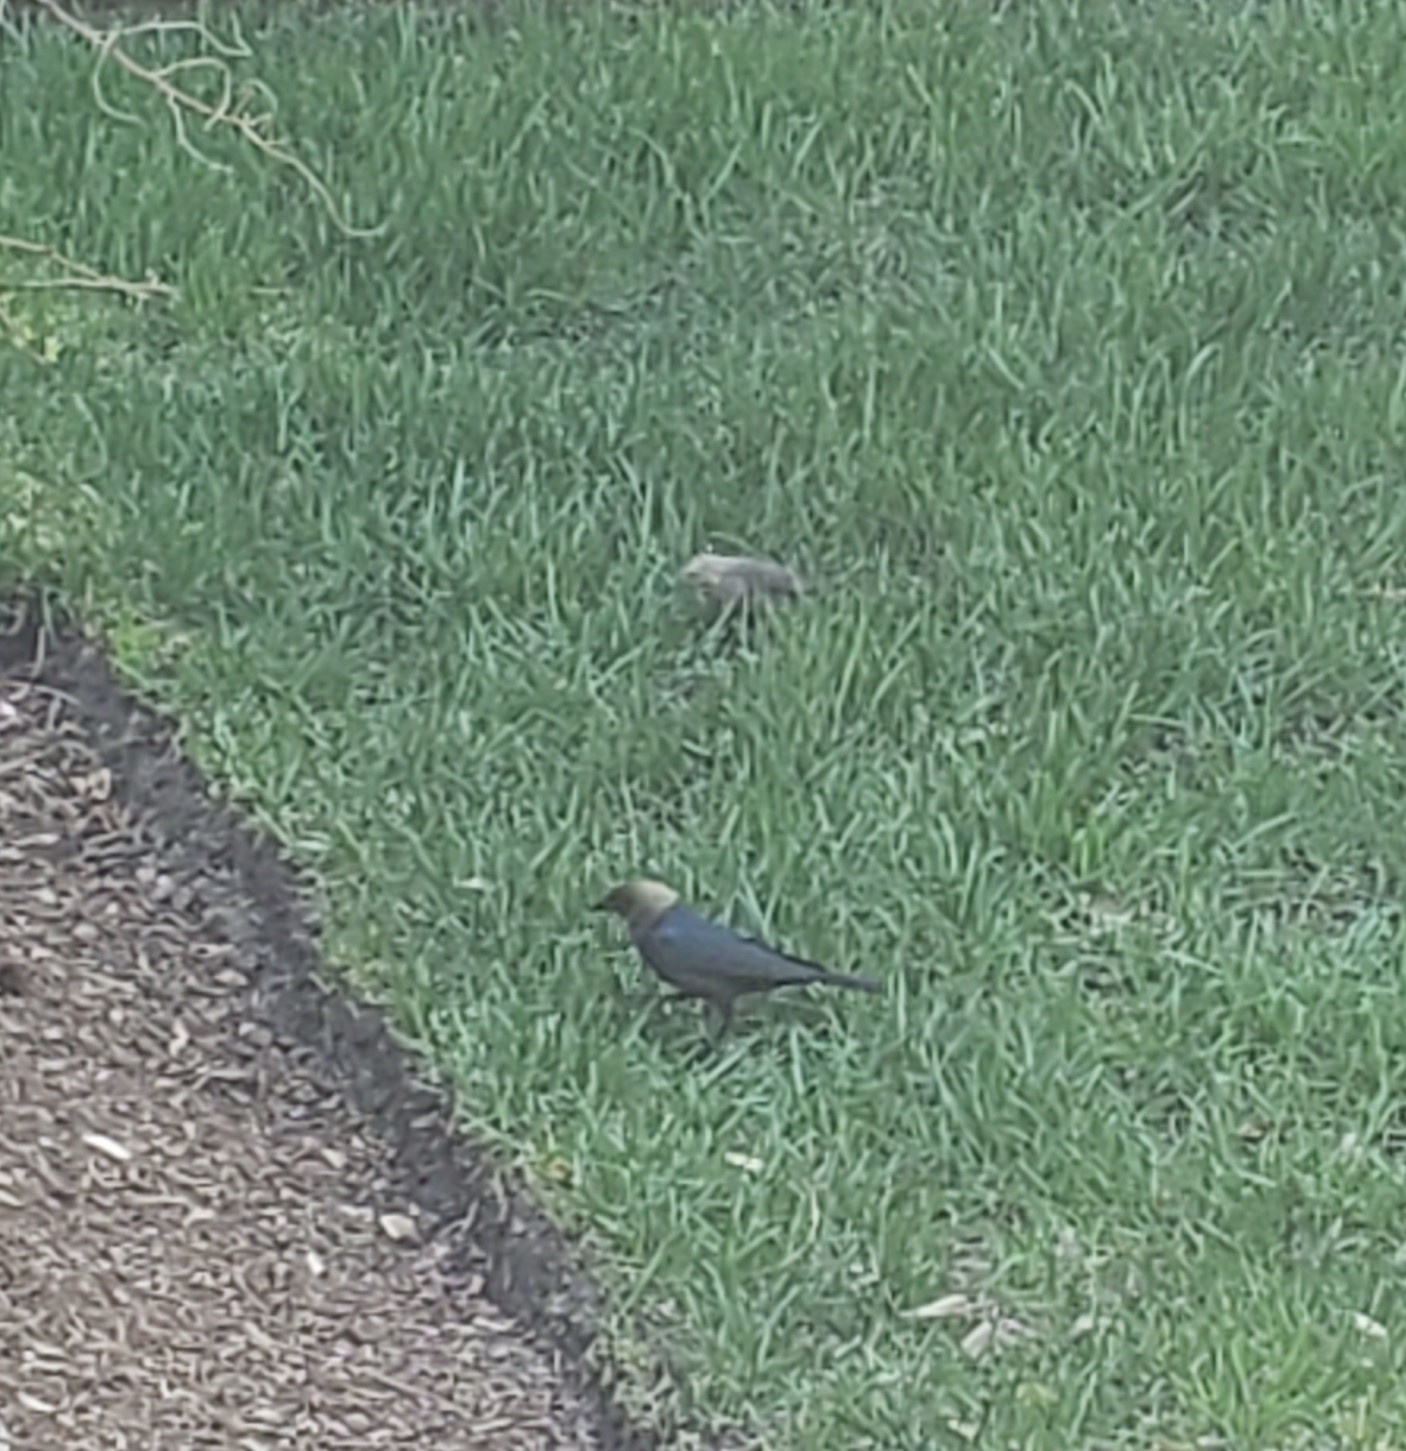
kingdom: Animalia
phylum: Chordata
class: Aves
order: Passeriformes
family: Icteridae
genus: Molothrus
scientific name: Molothrus ater
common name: Brown-headed cowbird
